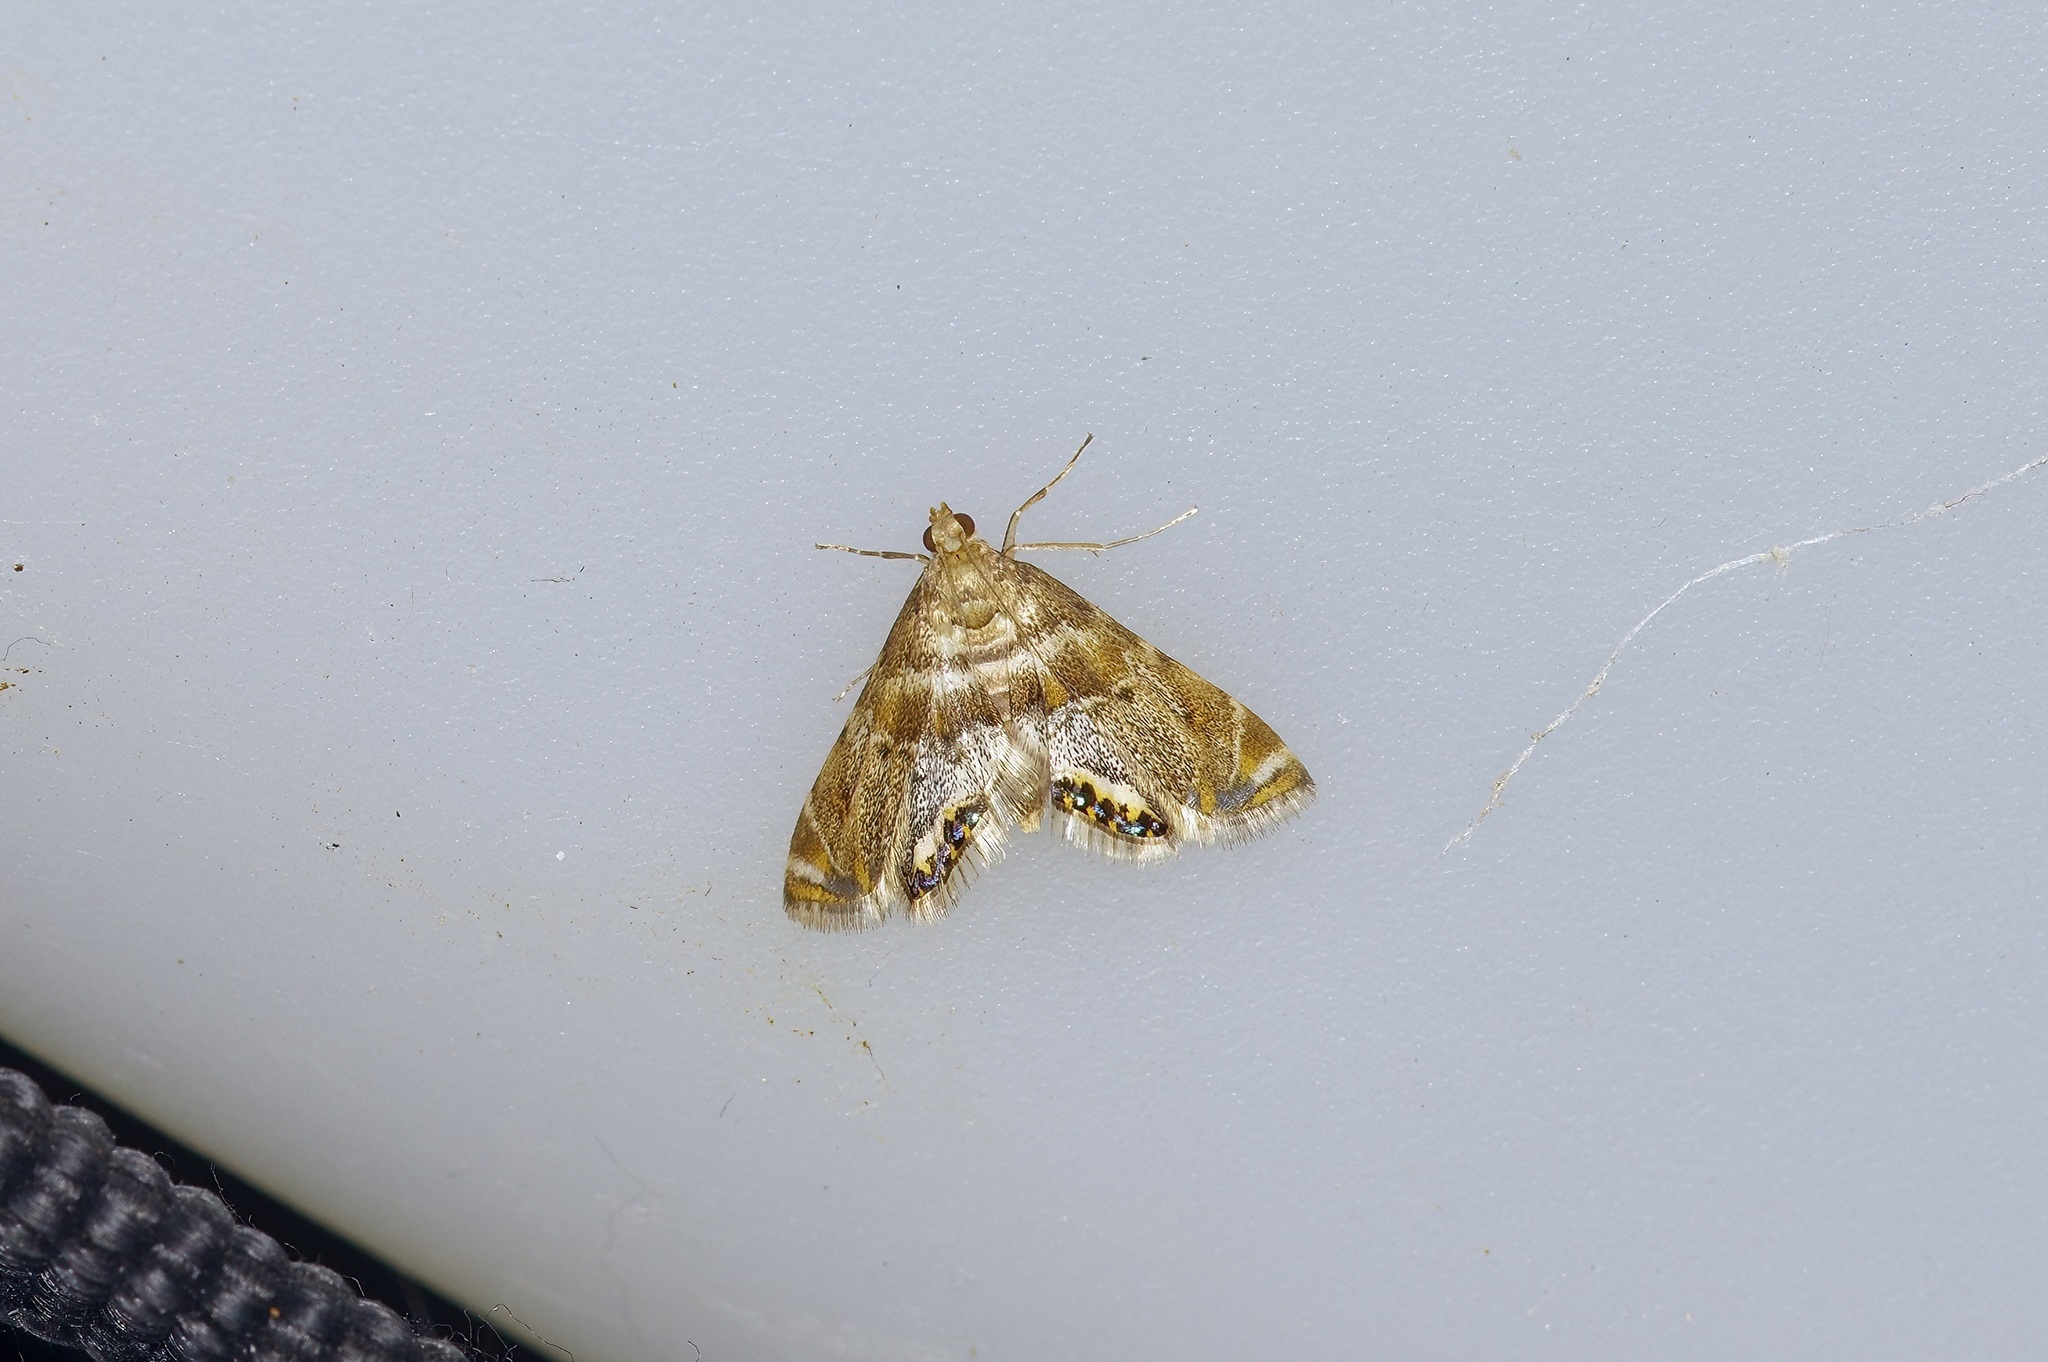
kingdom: Animalia
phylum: Arthropoda
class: Insecta
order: Lepidoptera
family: Crambidae
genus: Petrophila
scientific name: Petrophila fulicalis
